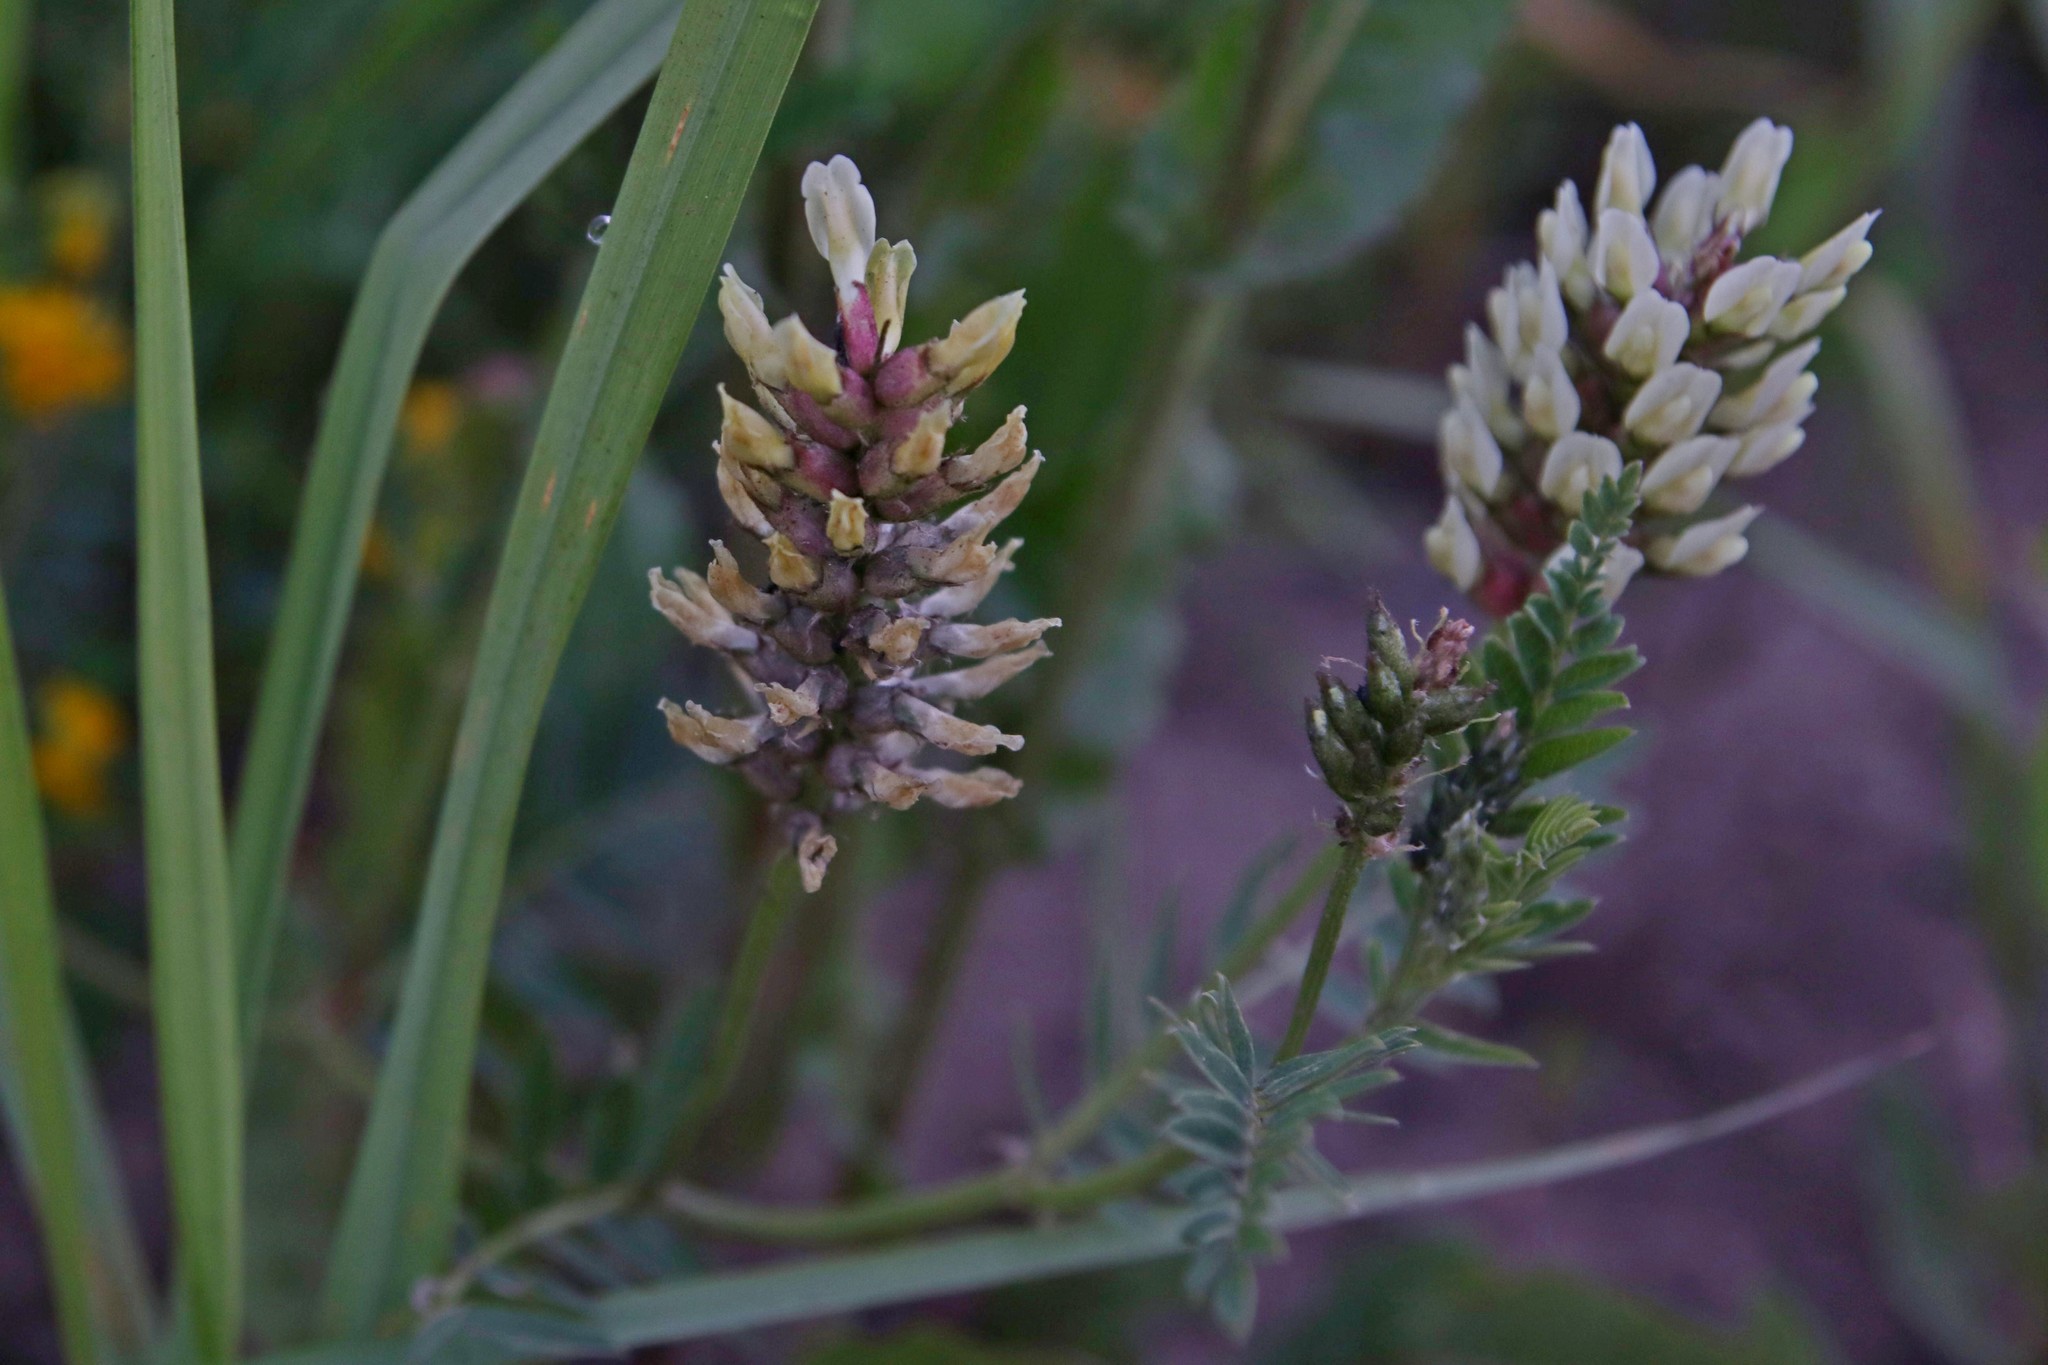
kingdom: Plantae
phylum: Tracheophyta
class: Magnoliopsida
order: Fabales
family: Fabaceae
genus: Astragalus
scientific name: Astragalus cicer
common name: Chick-pea milk-vetch
